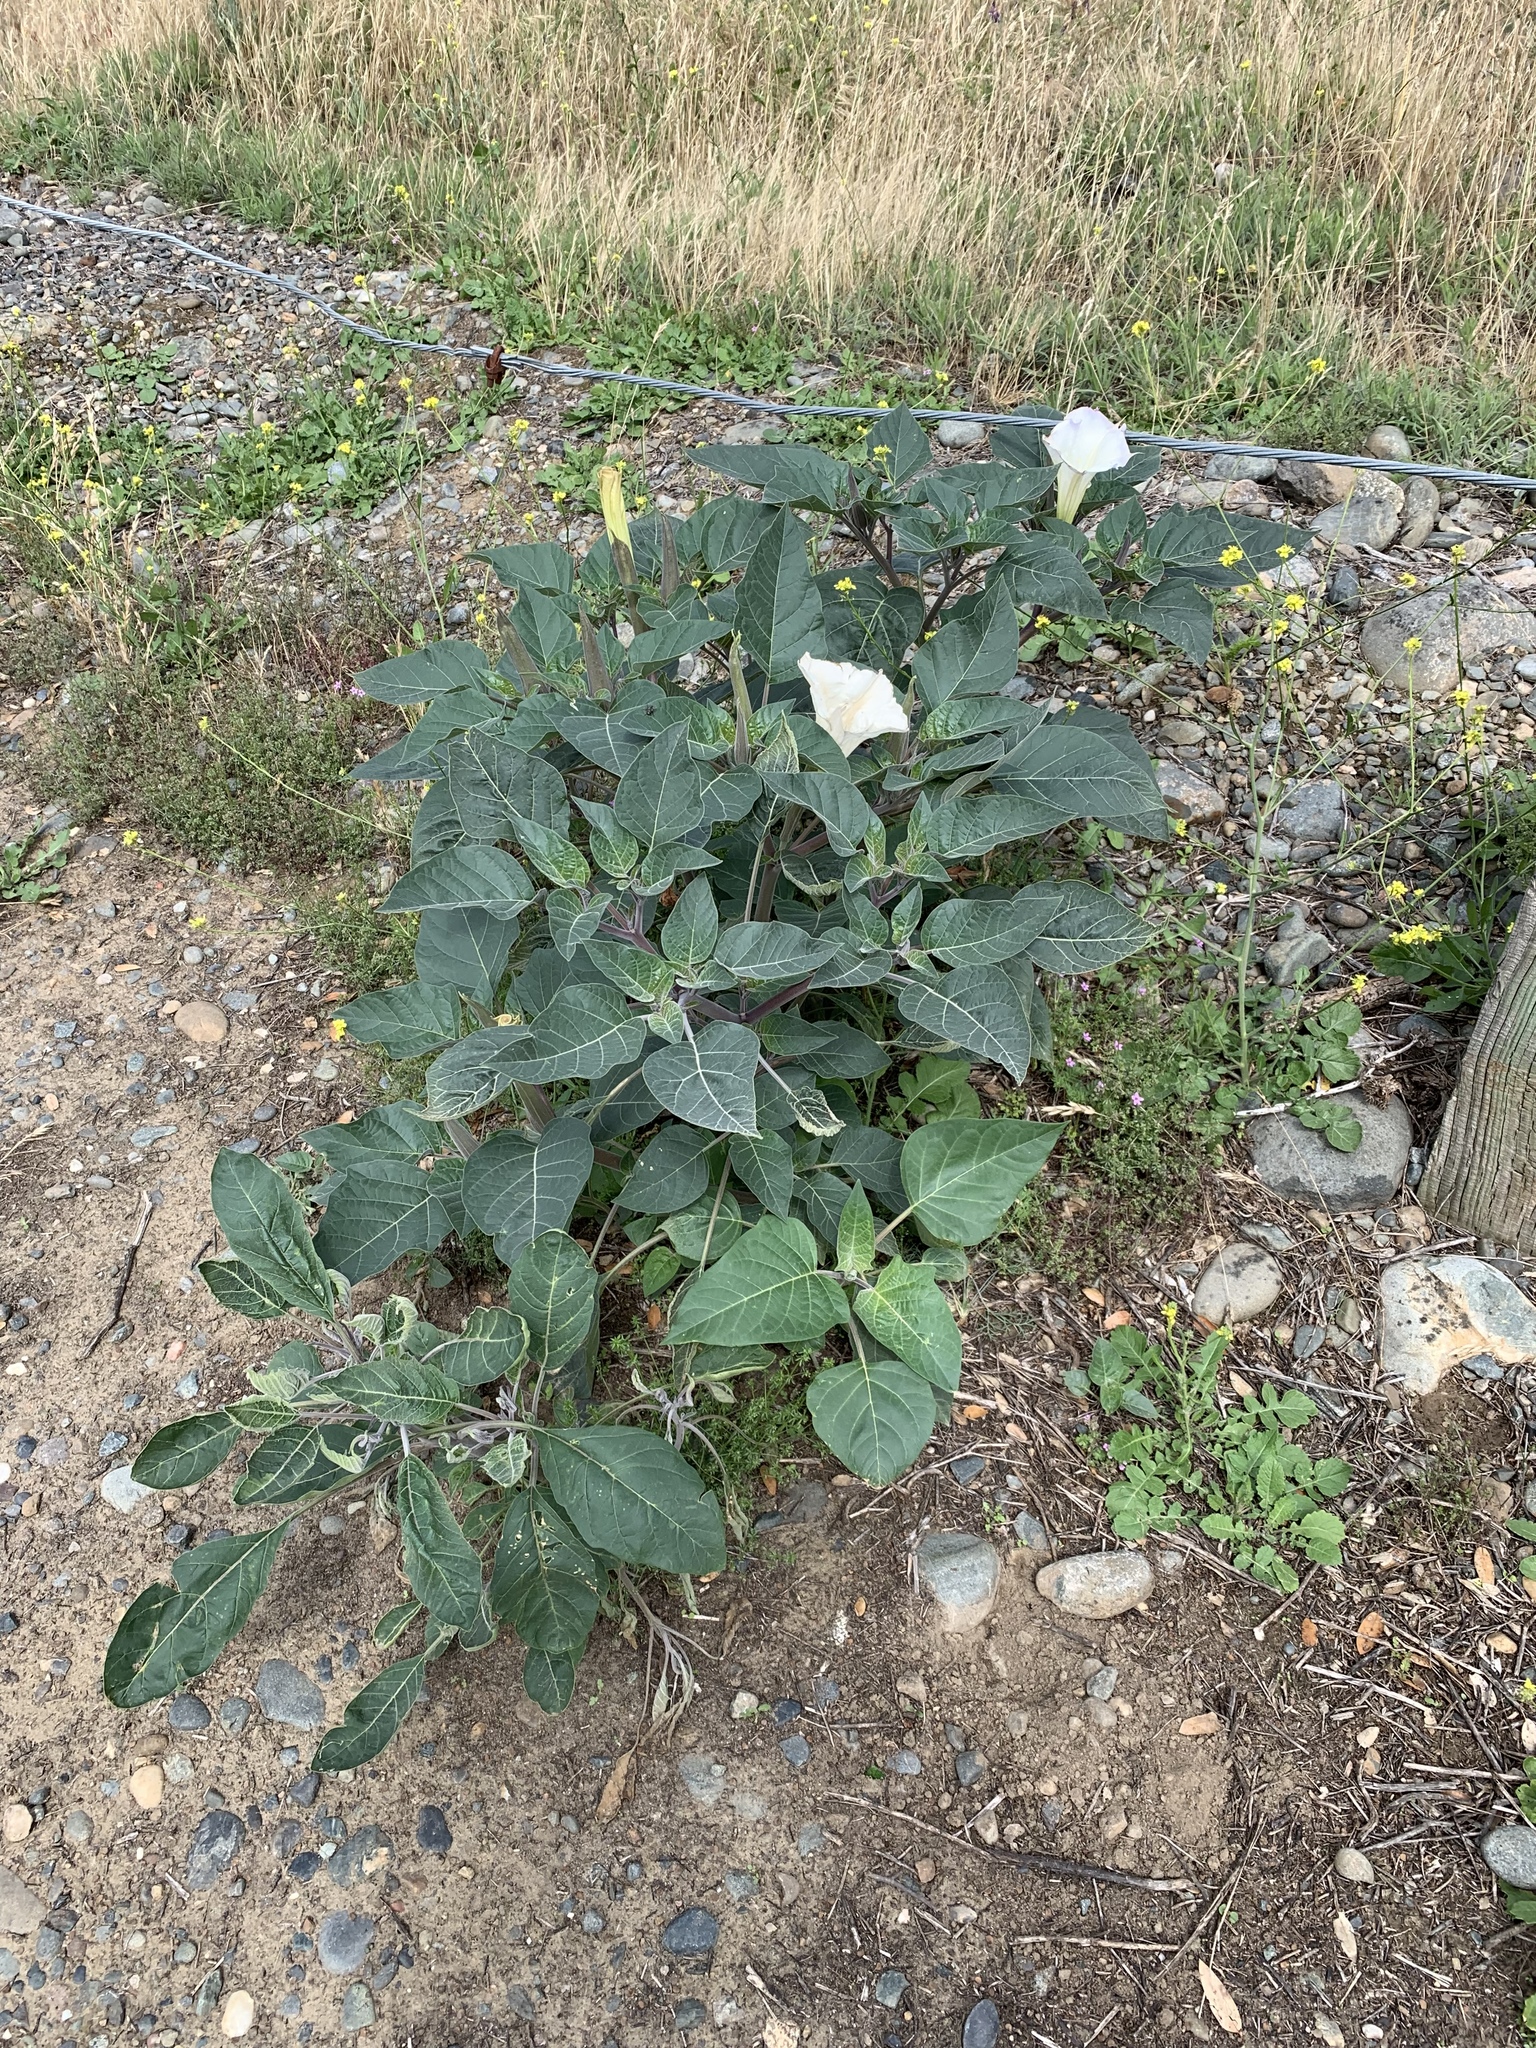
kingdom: Plantae
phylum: Tracheophyta
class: Magnoliopsida
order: Solanales
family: Solanaceae
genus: Datura
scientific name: Datura wrightii
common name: Sacred thorn-apple
